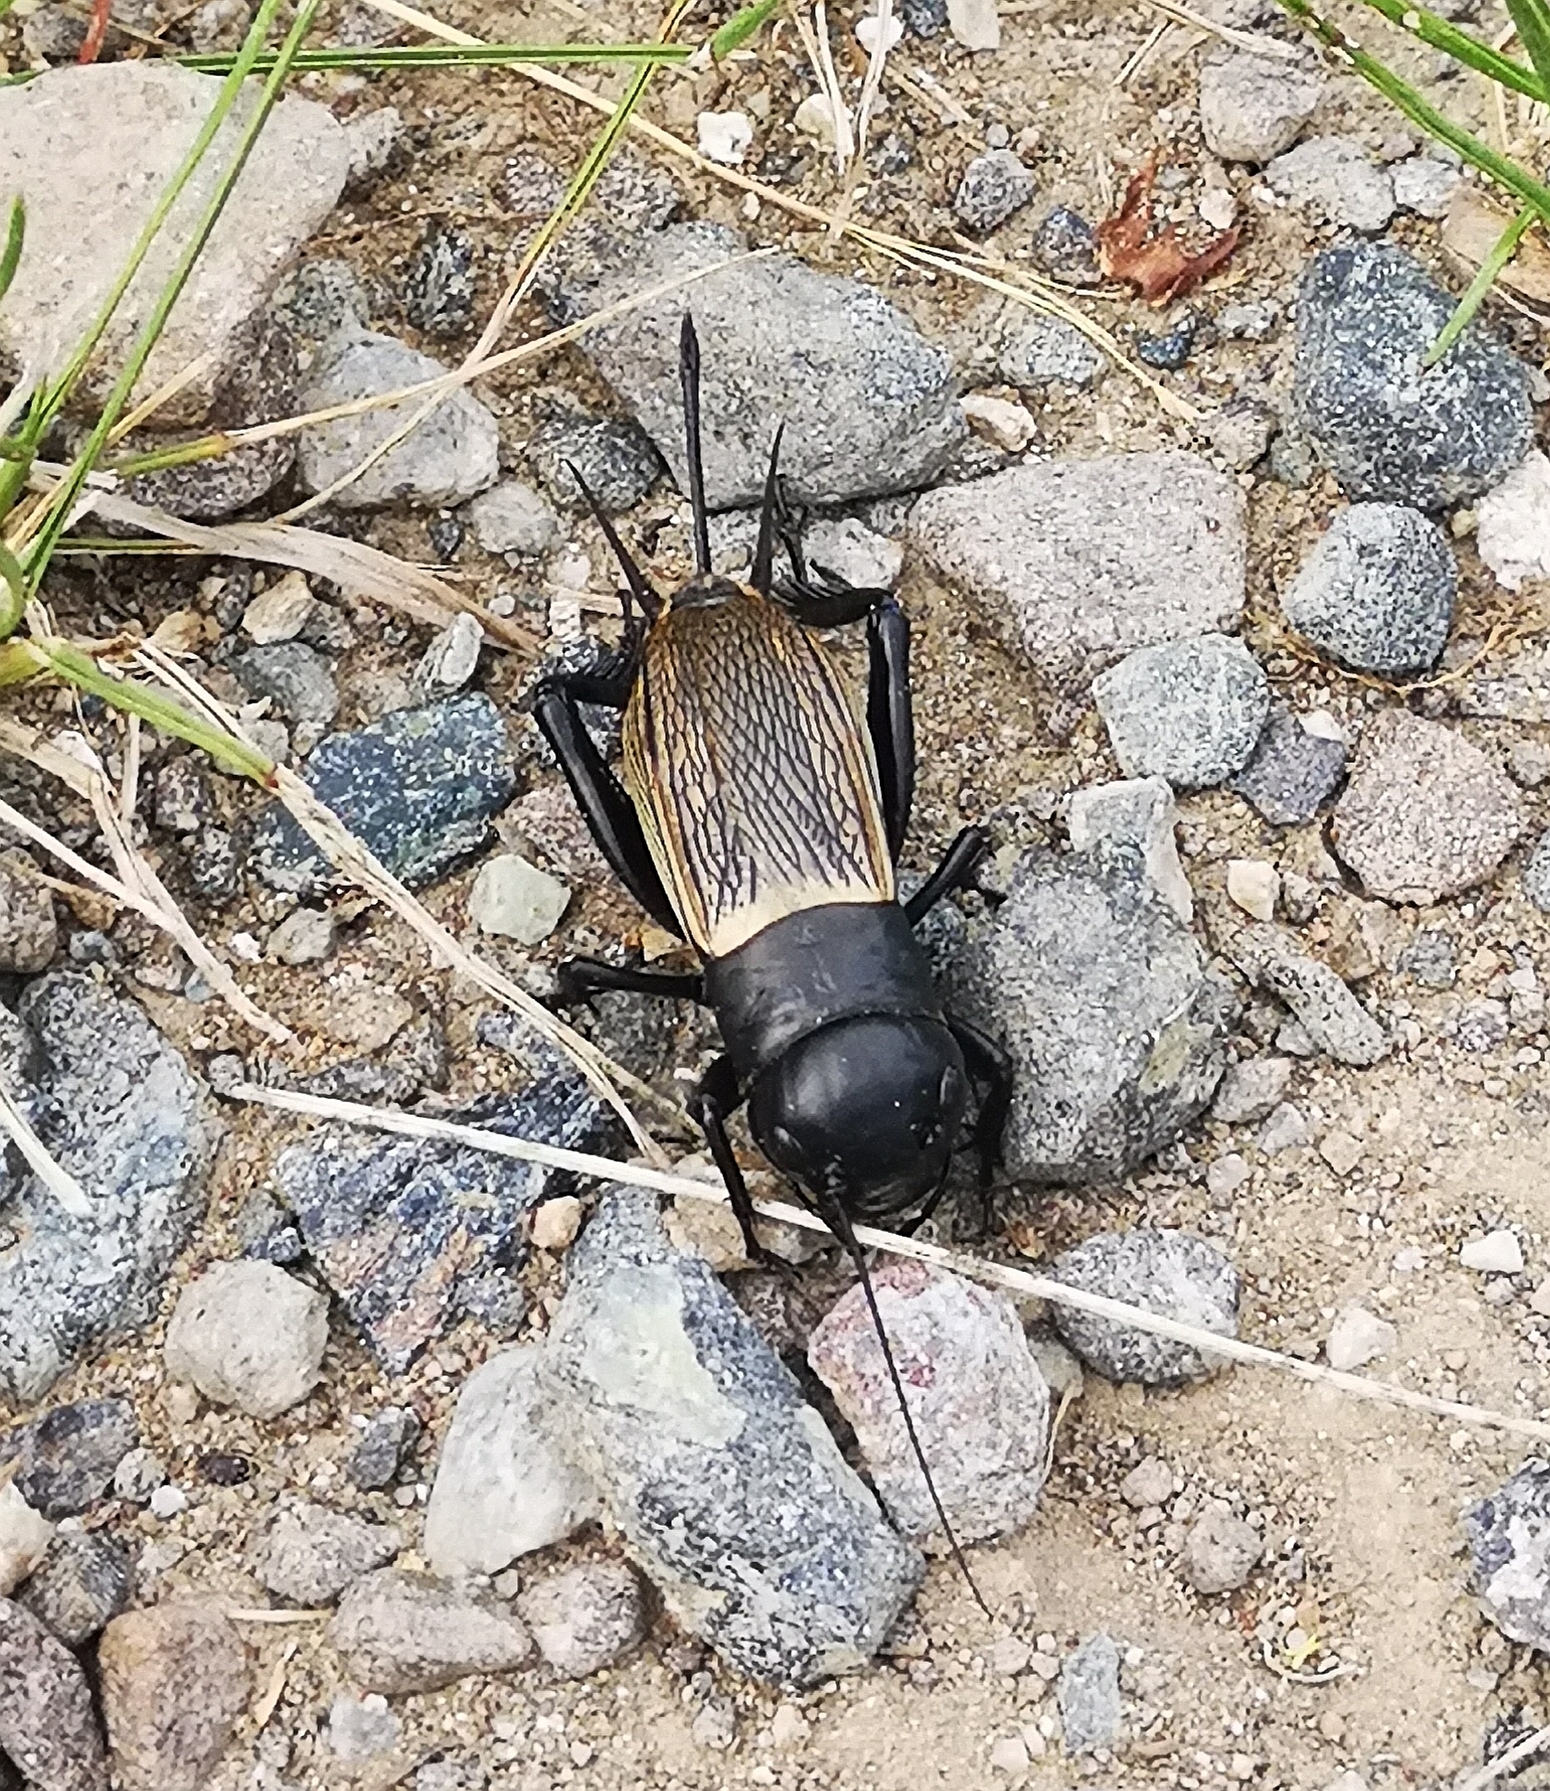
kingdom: Animalia
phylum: Arthropoda
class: Insecta
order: Orthoptera
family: Gryllidae
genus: Gryllus
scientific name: Gryllus campestris
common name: Field cricket
